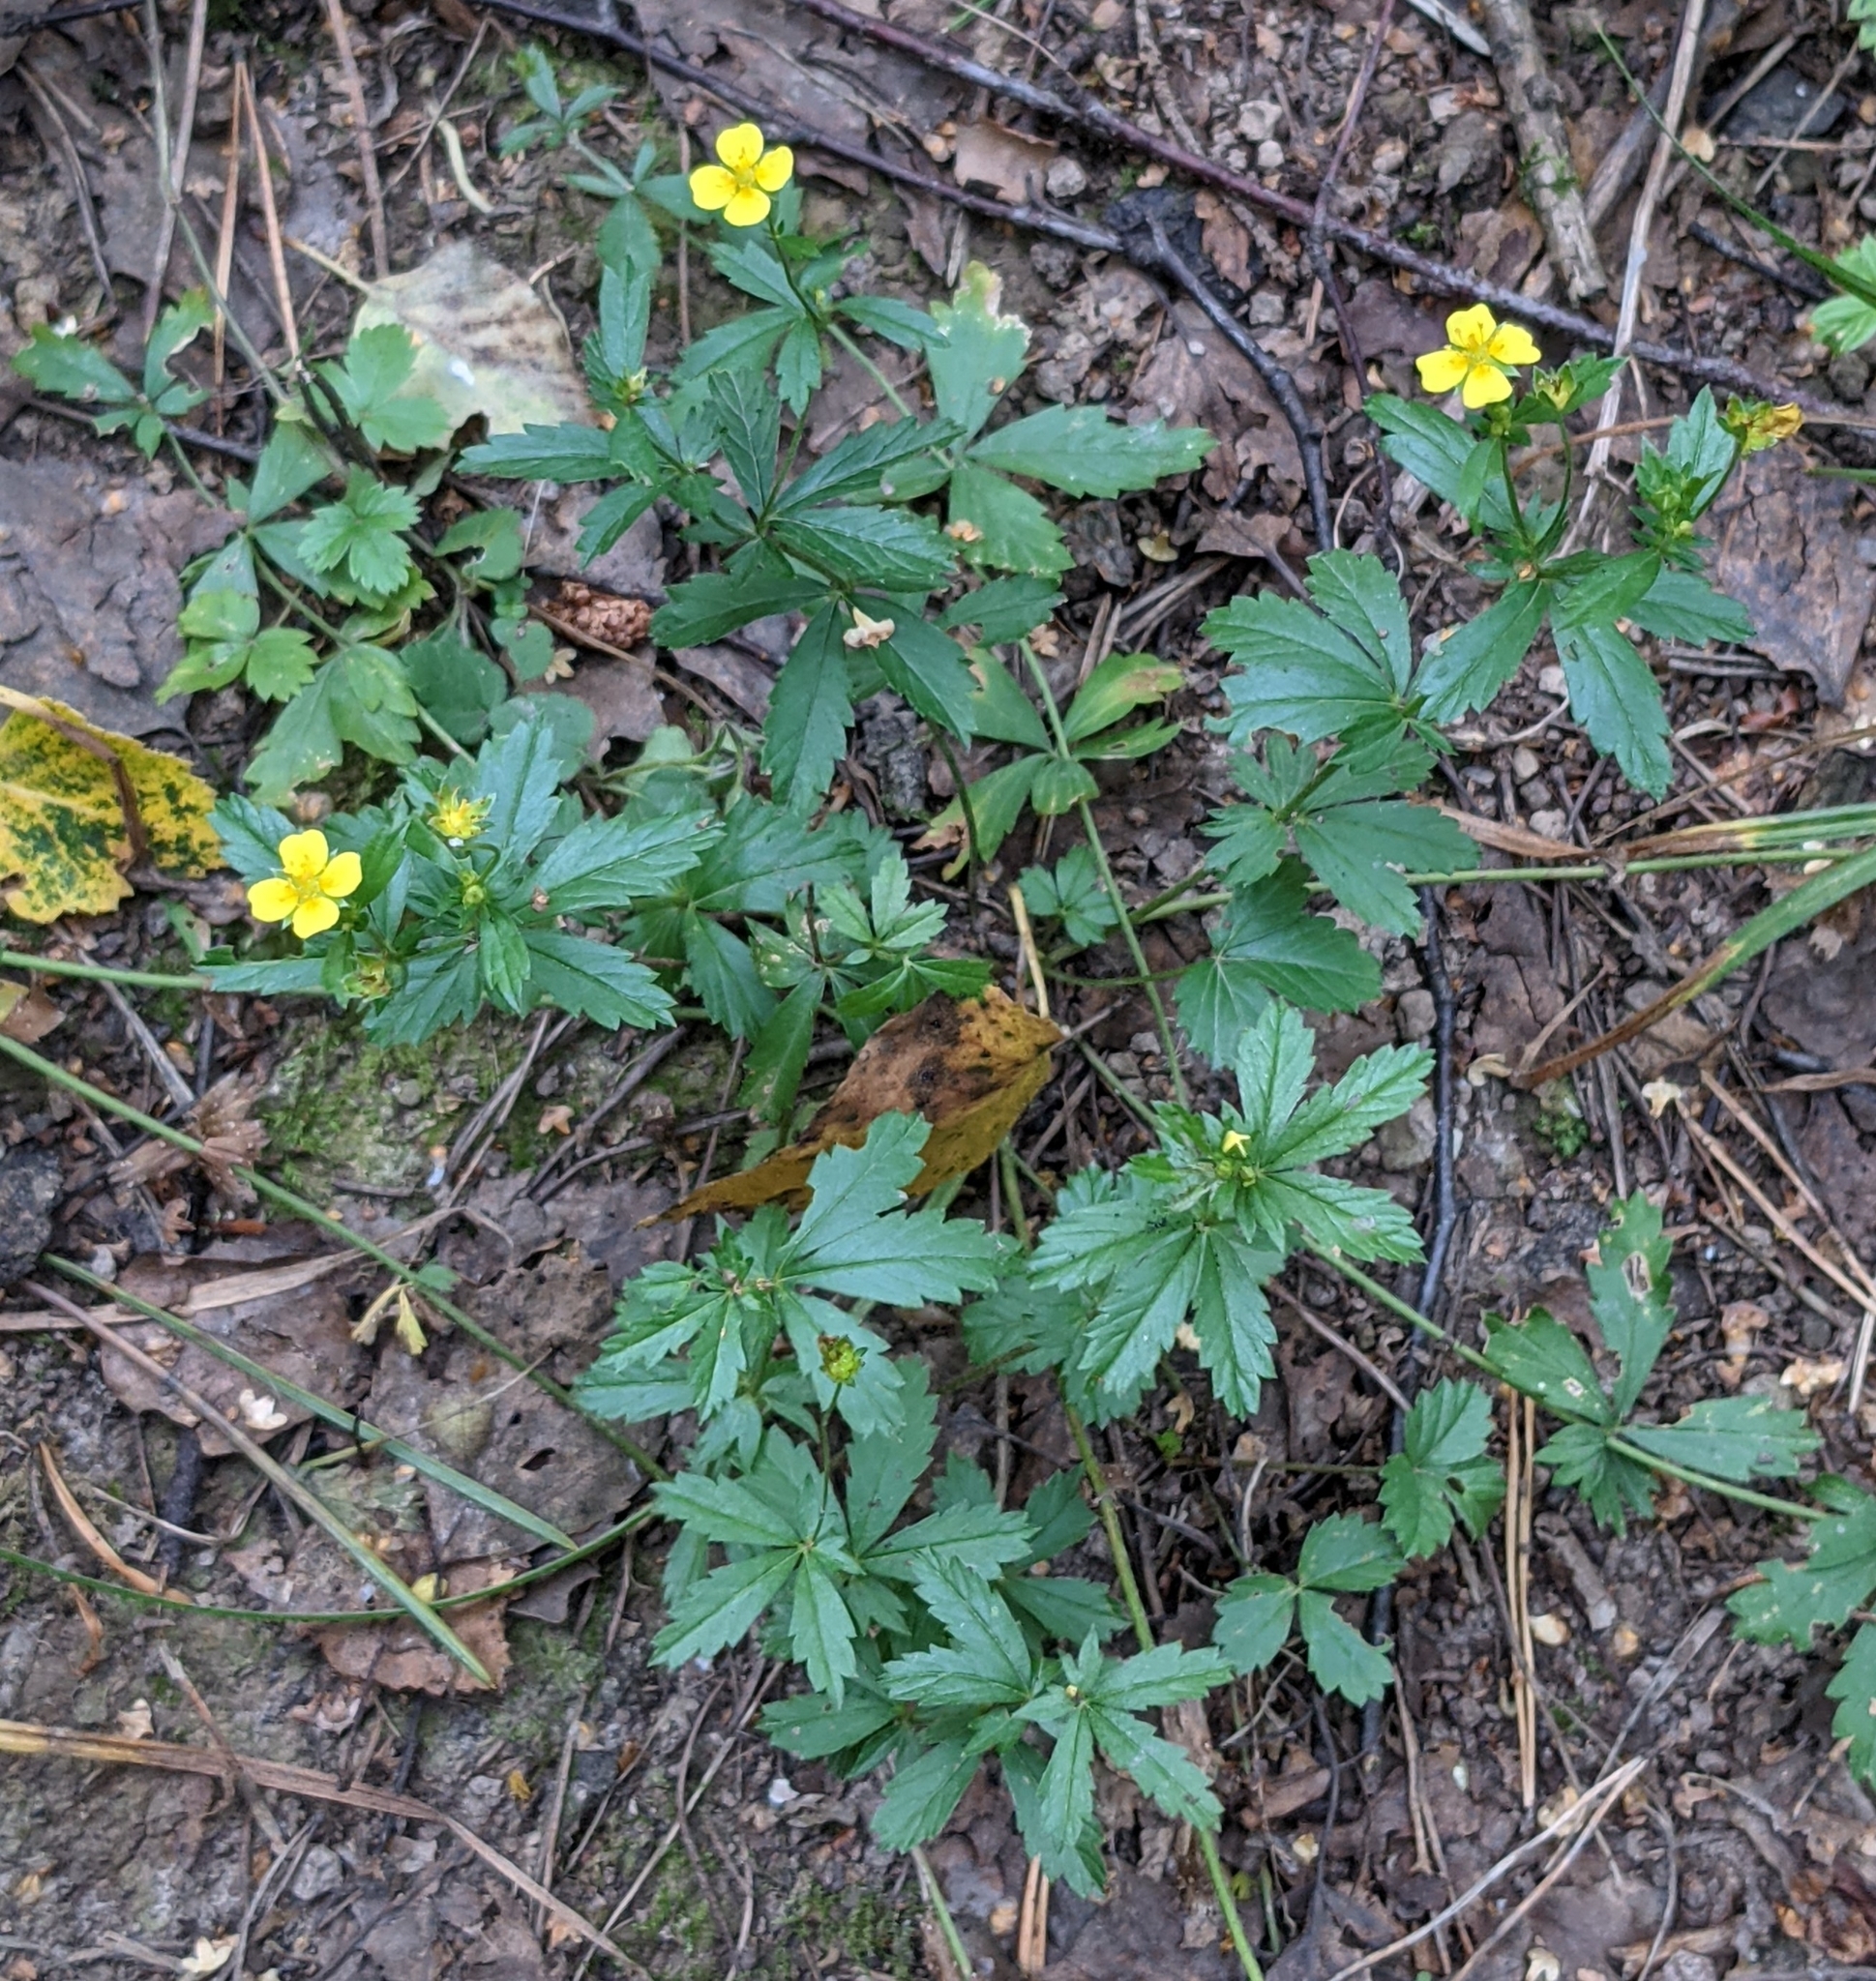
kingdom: Plantae
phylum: Tracheophyta
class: Magnoliopsida
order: Rosales
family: Rosaceae
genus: Potentilla
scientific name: Potentilla erecta
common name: Tormentil
